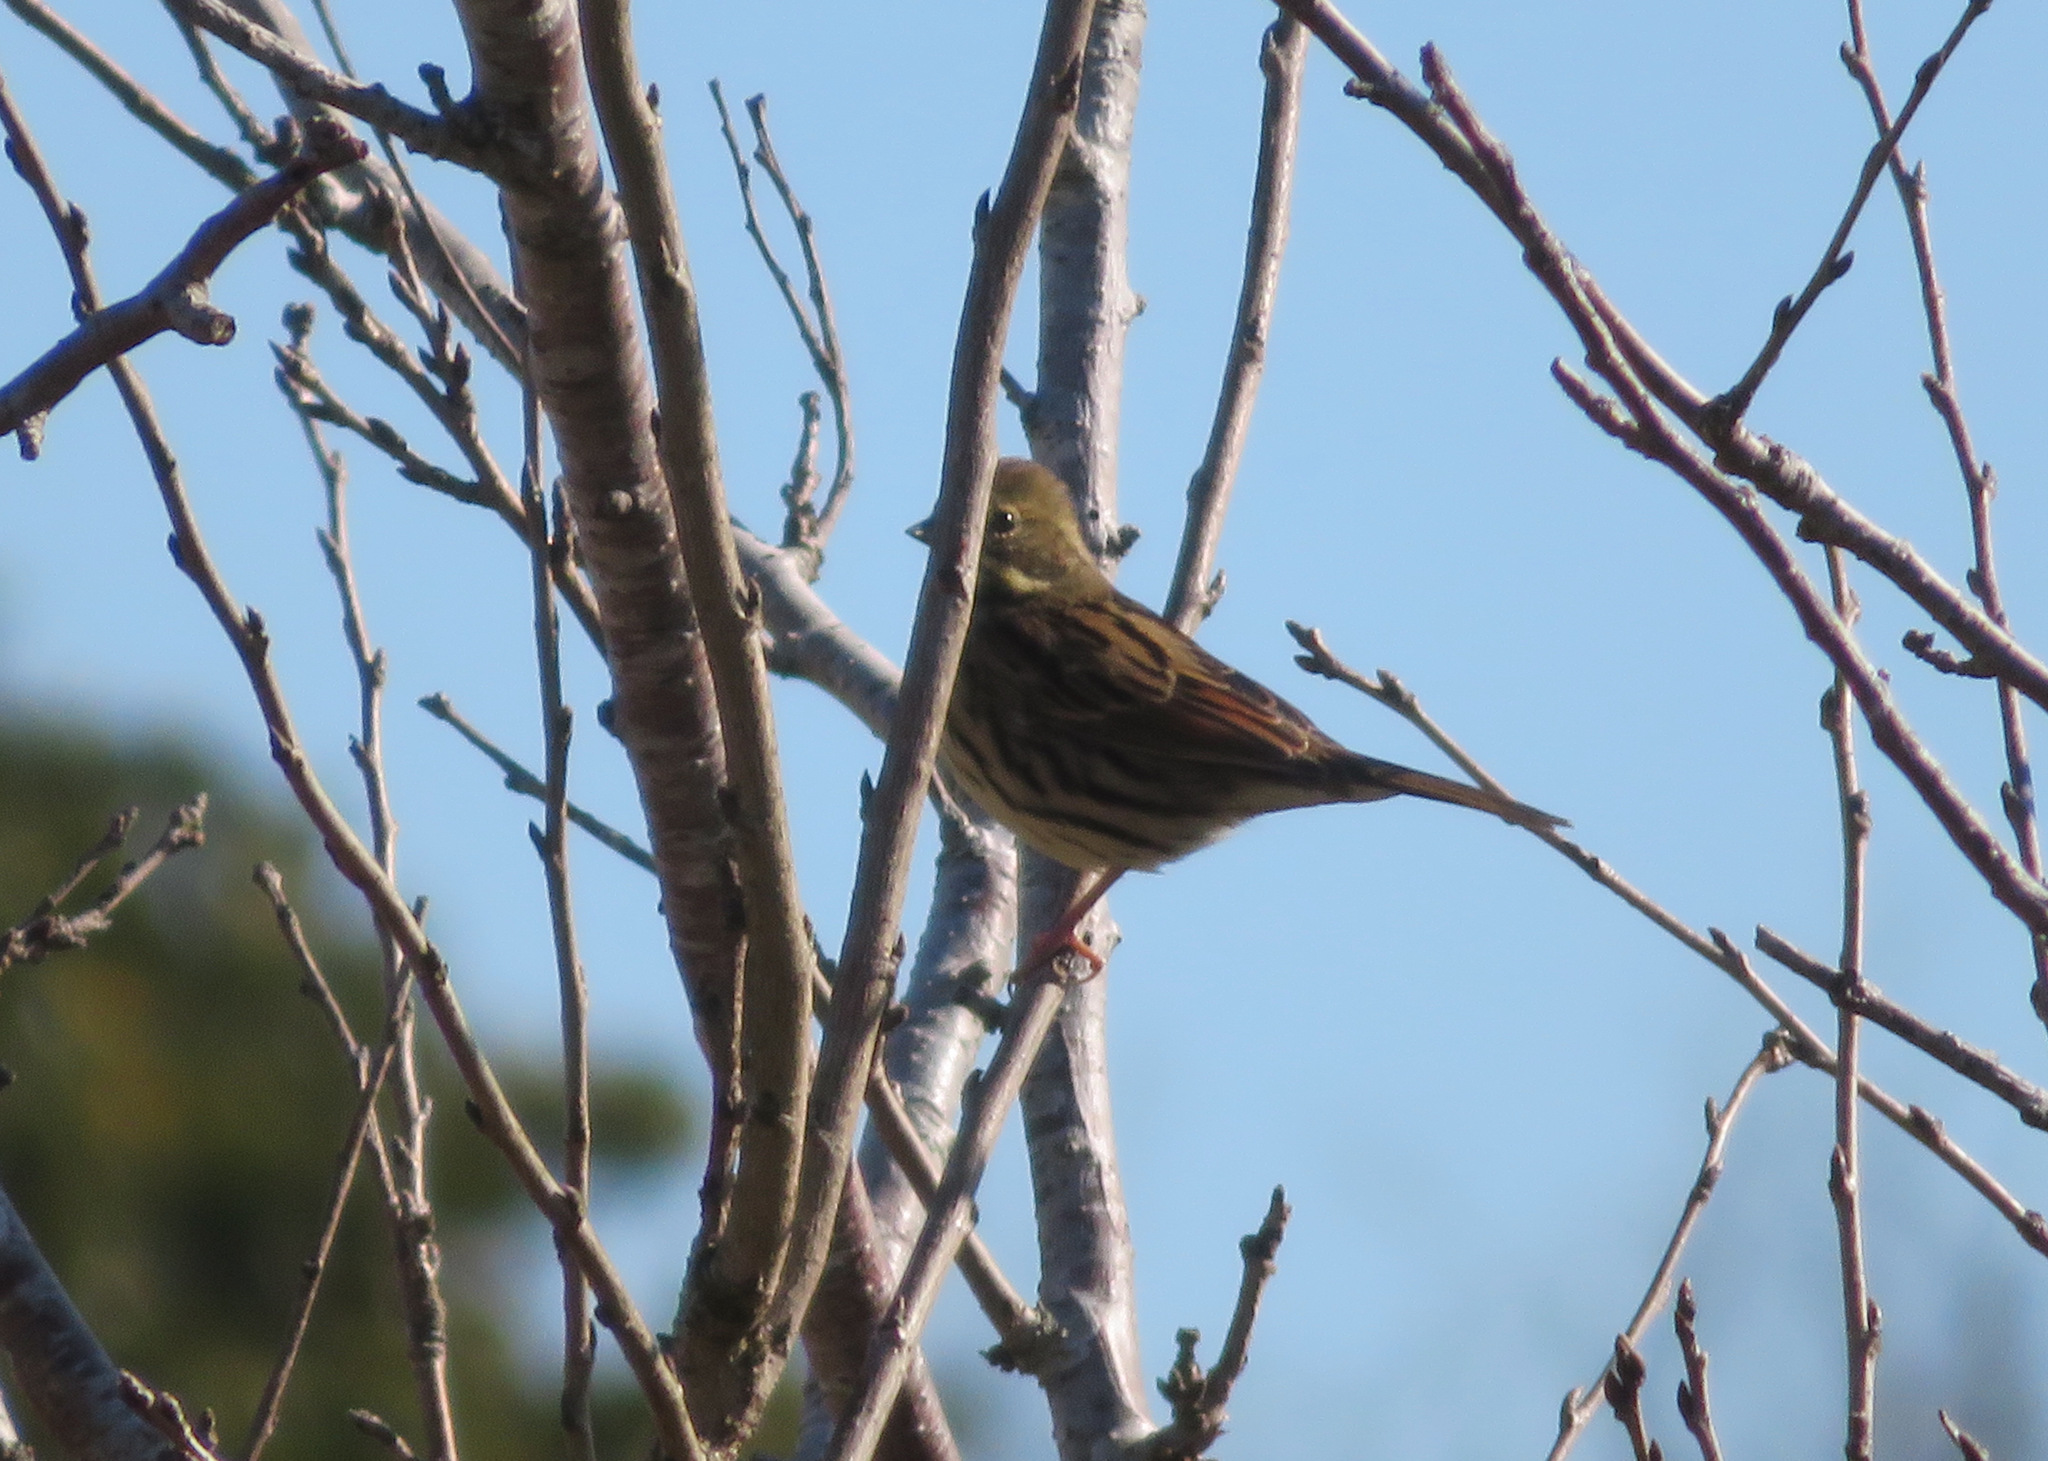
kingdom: Animalia
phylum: Chordata
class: Aves
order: Passeriformes
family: Emberizidae
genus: Emberiza
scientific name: Emberiza personata
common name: Masked bunting
